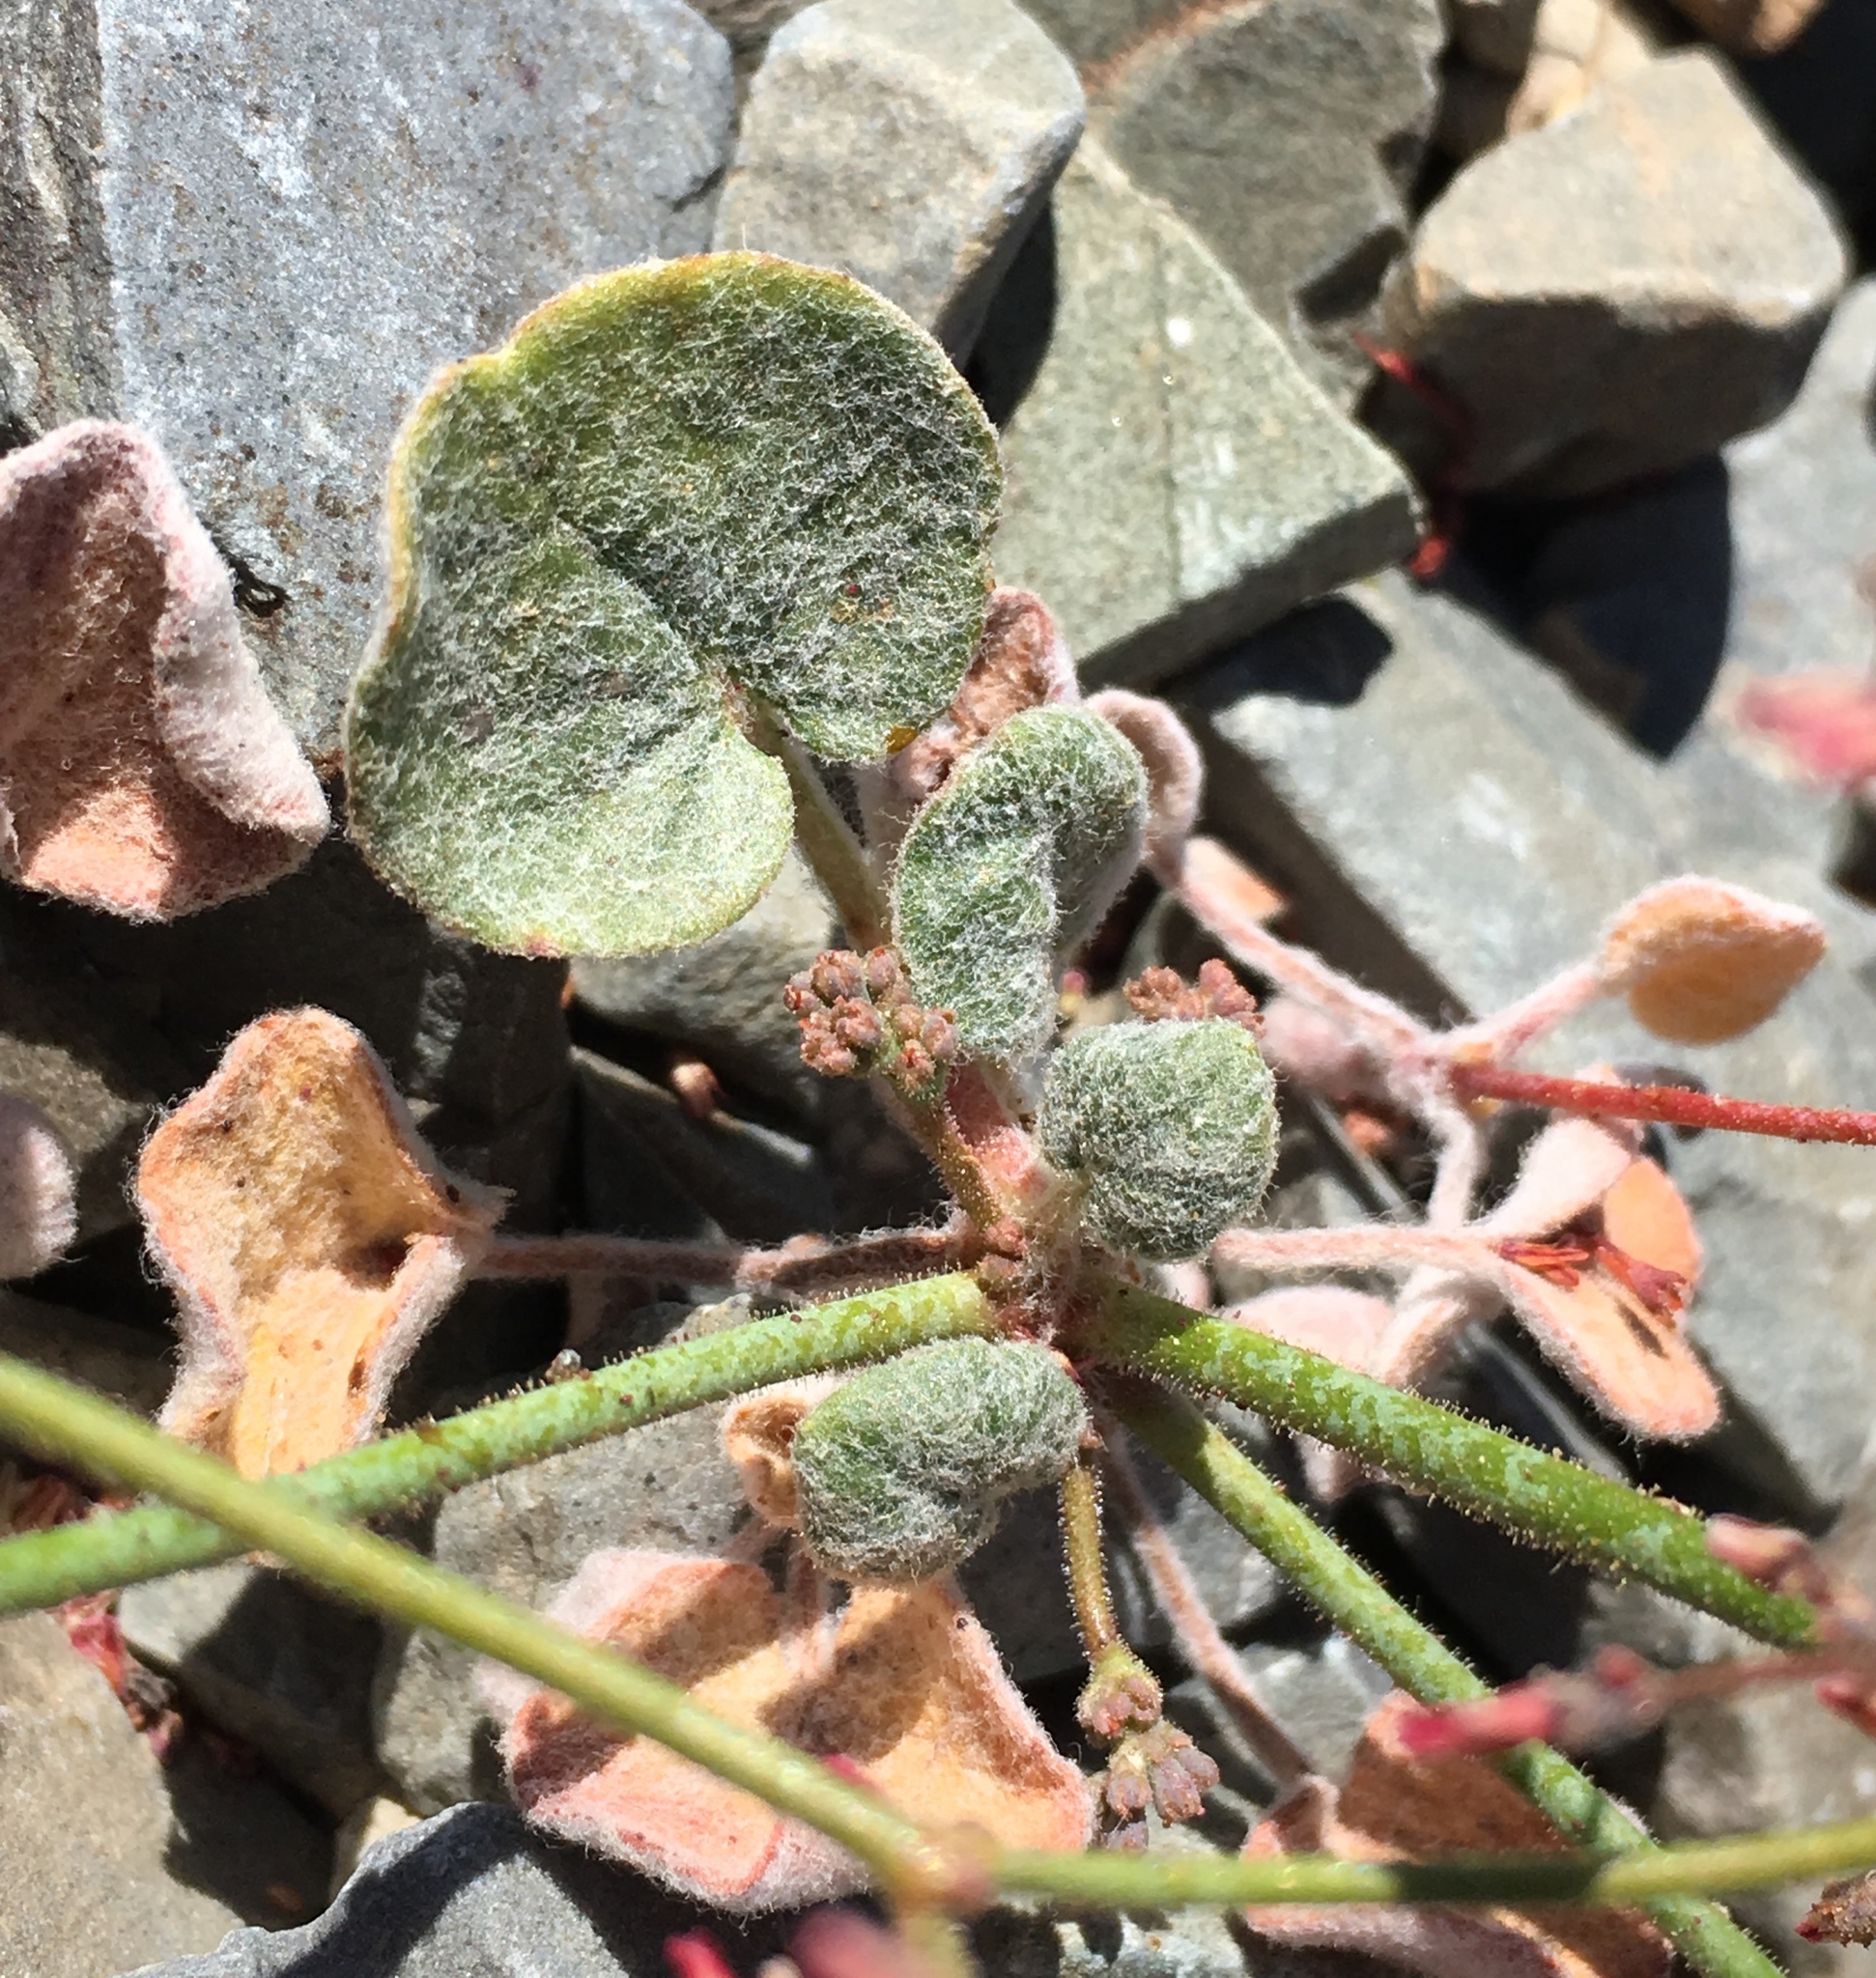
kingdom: Plantae
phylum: Tracheophyta
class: Magnoliopsida
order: Caryophyllales
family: Polygonaceae
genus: Eriogonum
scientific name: Eriogonum eremicola
